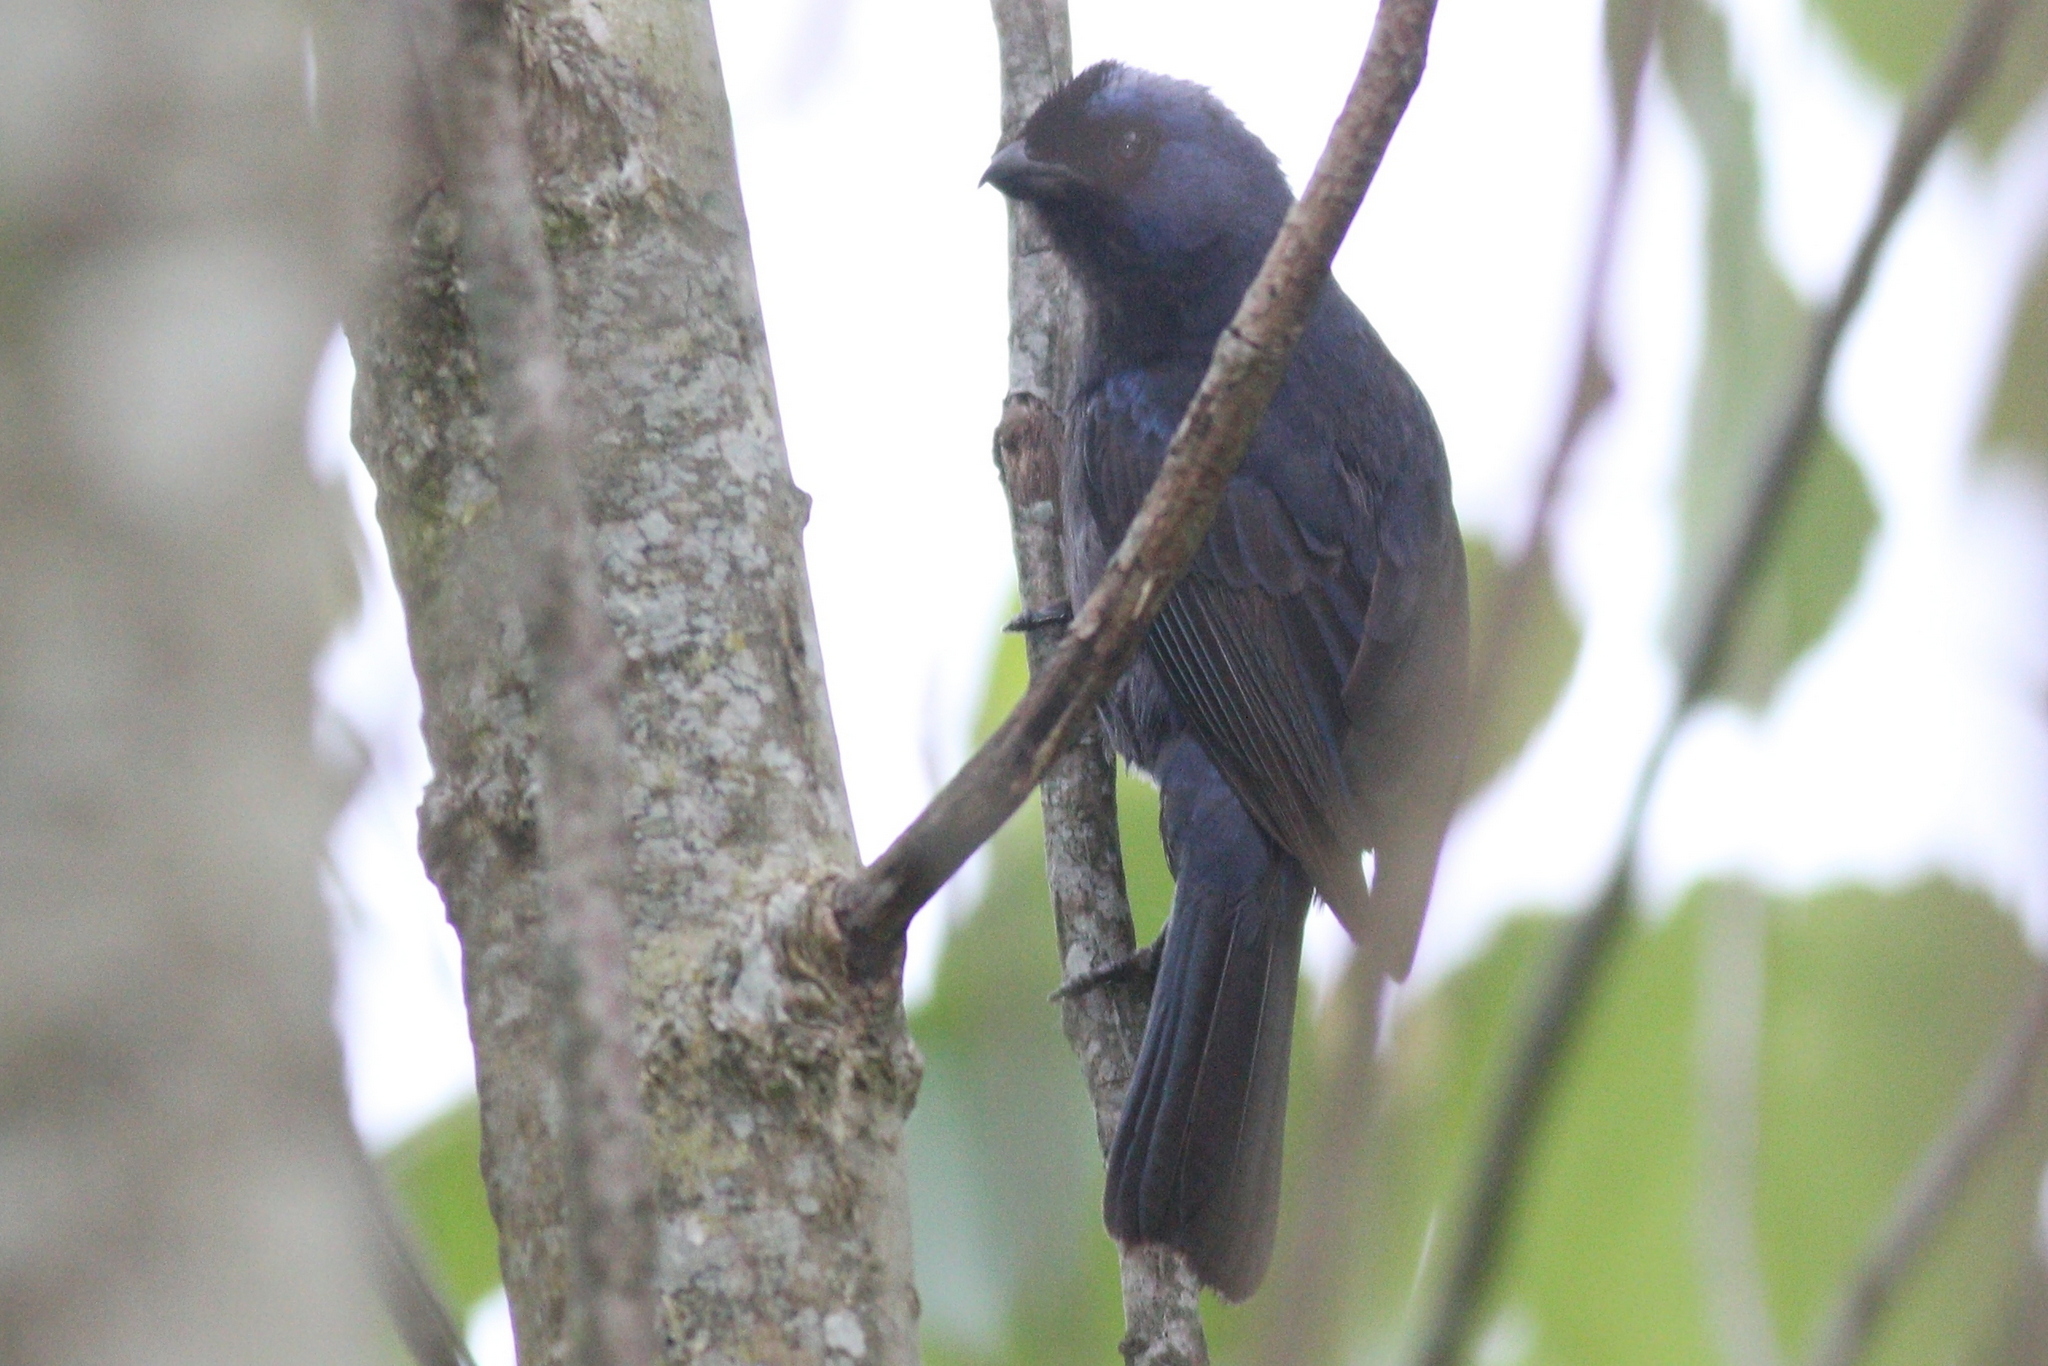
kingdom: Animalia
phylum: Chordata
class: Aves
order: Passeriformes
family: Thraupidae
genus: Stephanophorus
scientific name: Stephanophorus diadematus
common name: Diademed tanager
